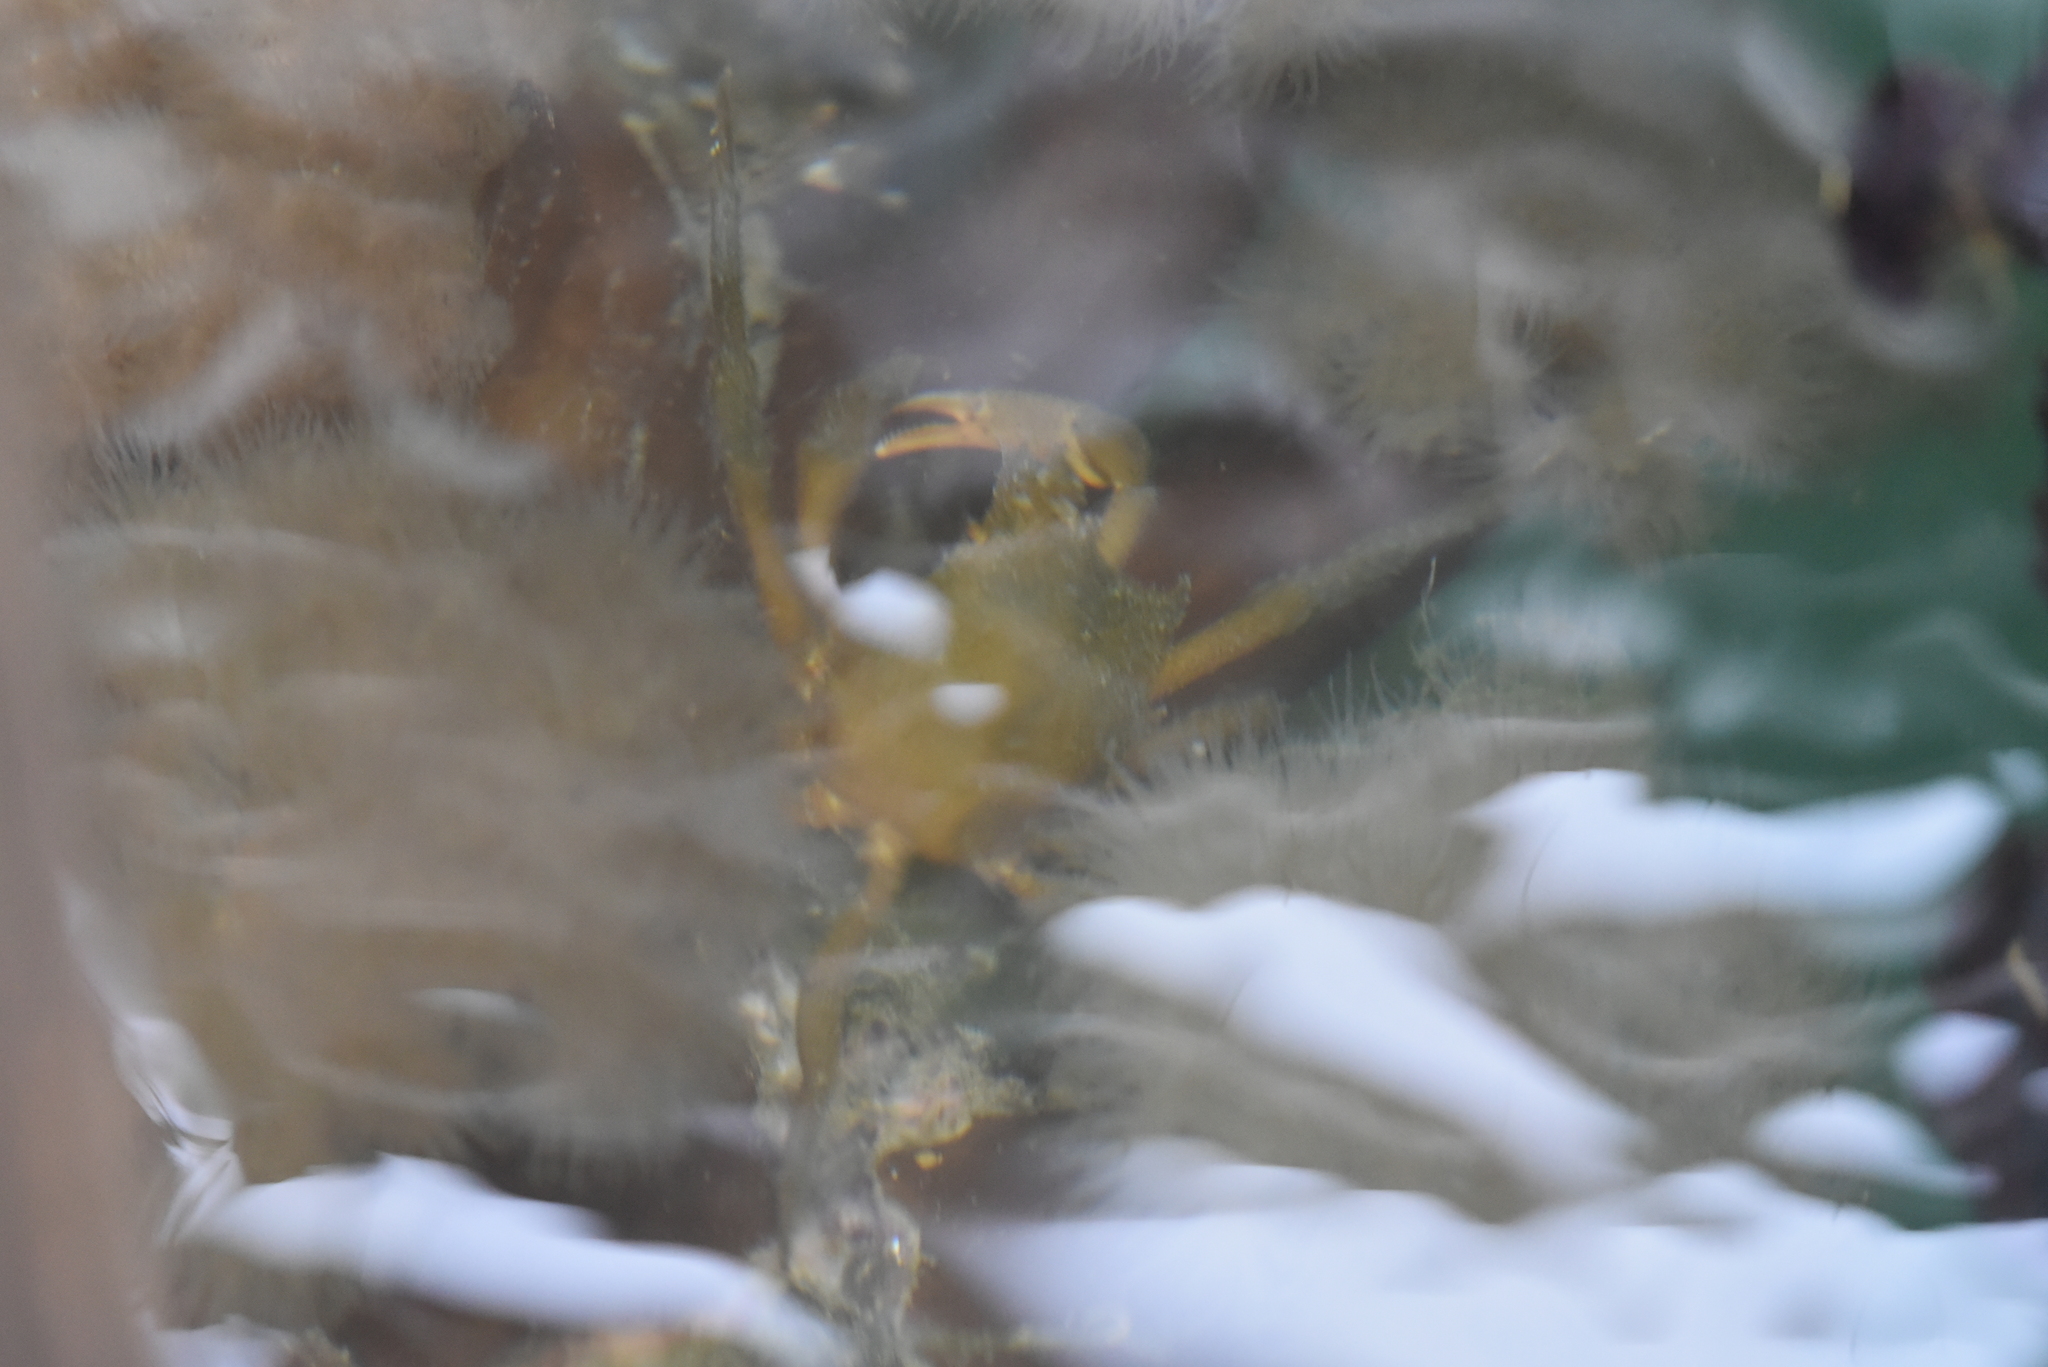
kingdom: Animalia
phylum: Arthropoda
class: Malacostraca
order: Decapoda
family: Epialtidae
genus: Pugettia
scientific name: Pugettia producta
